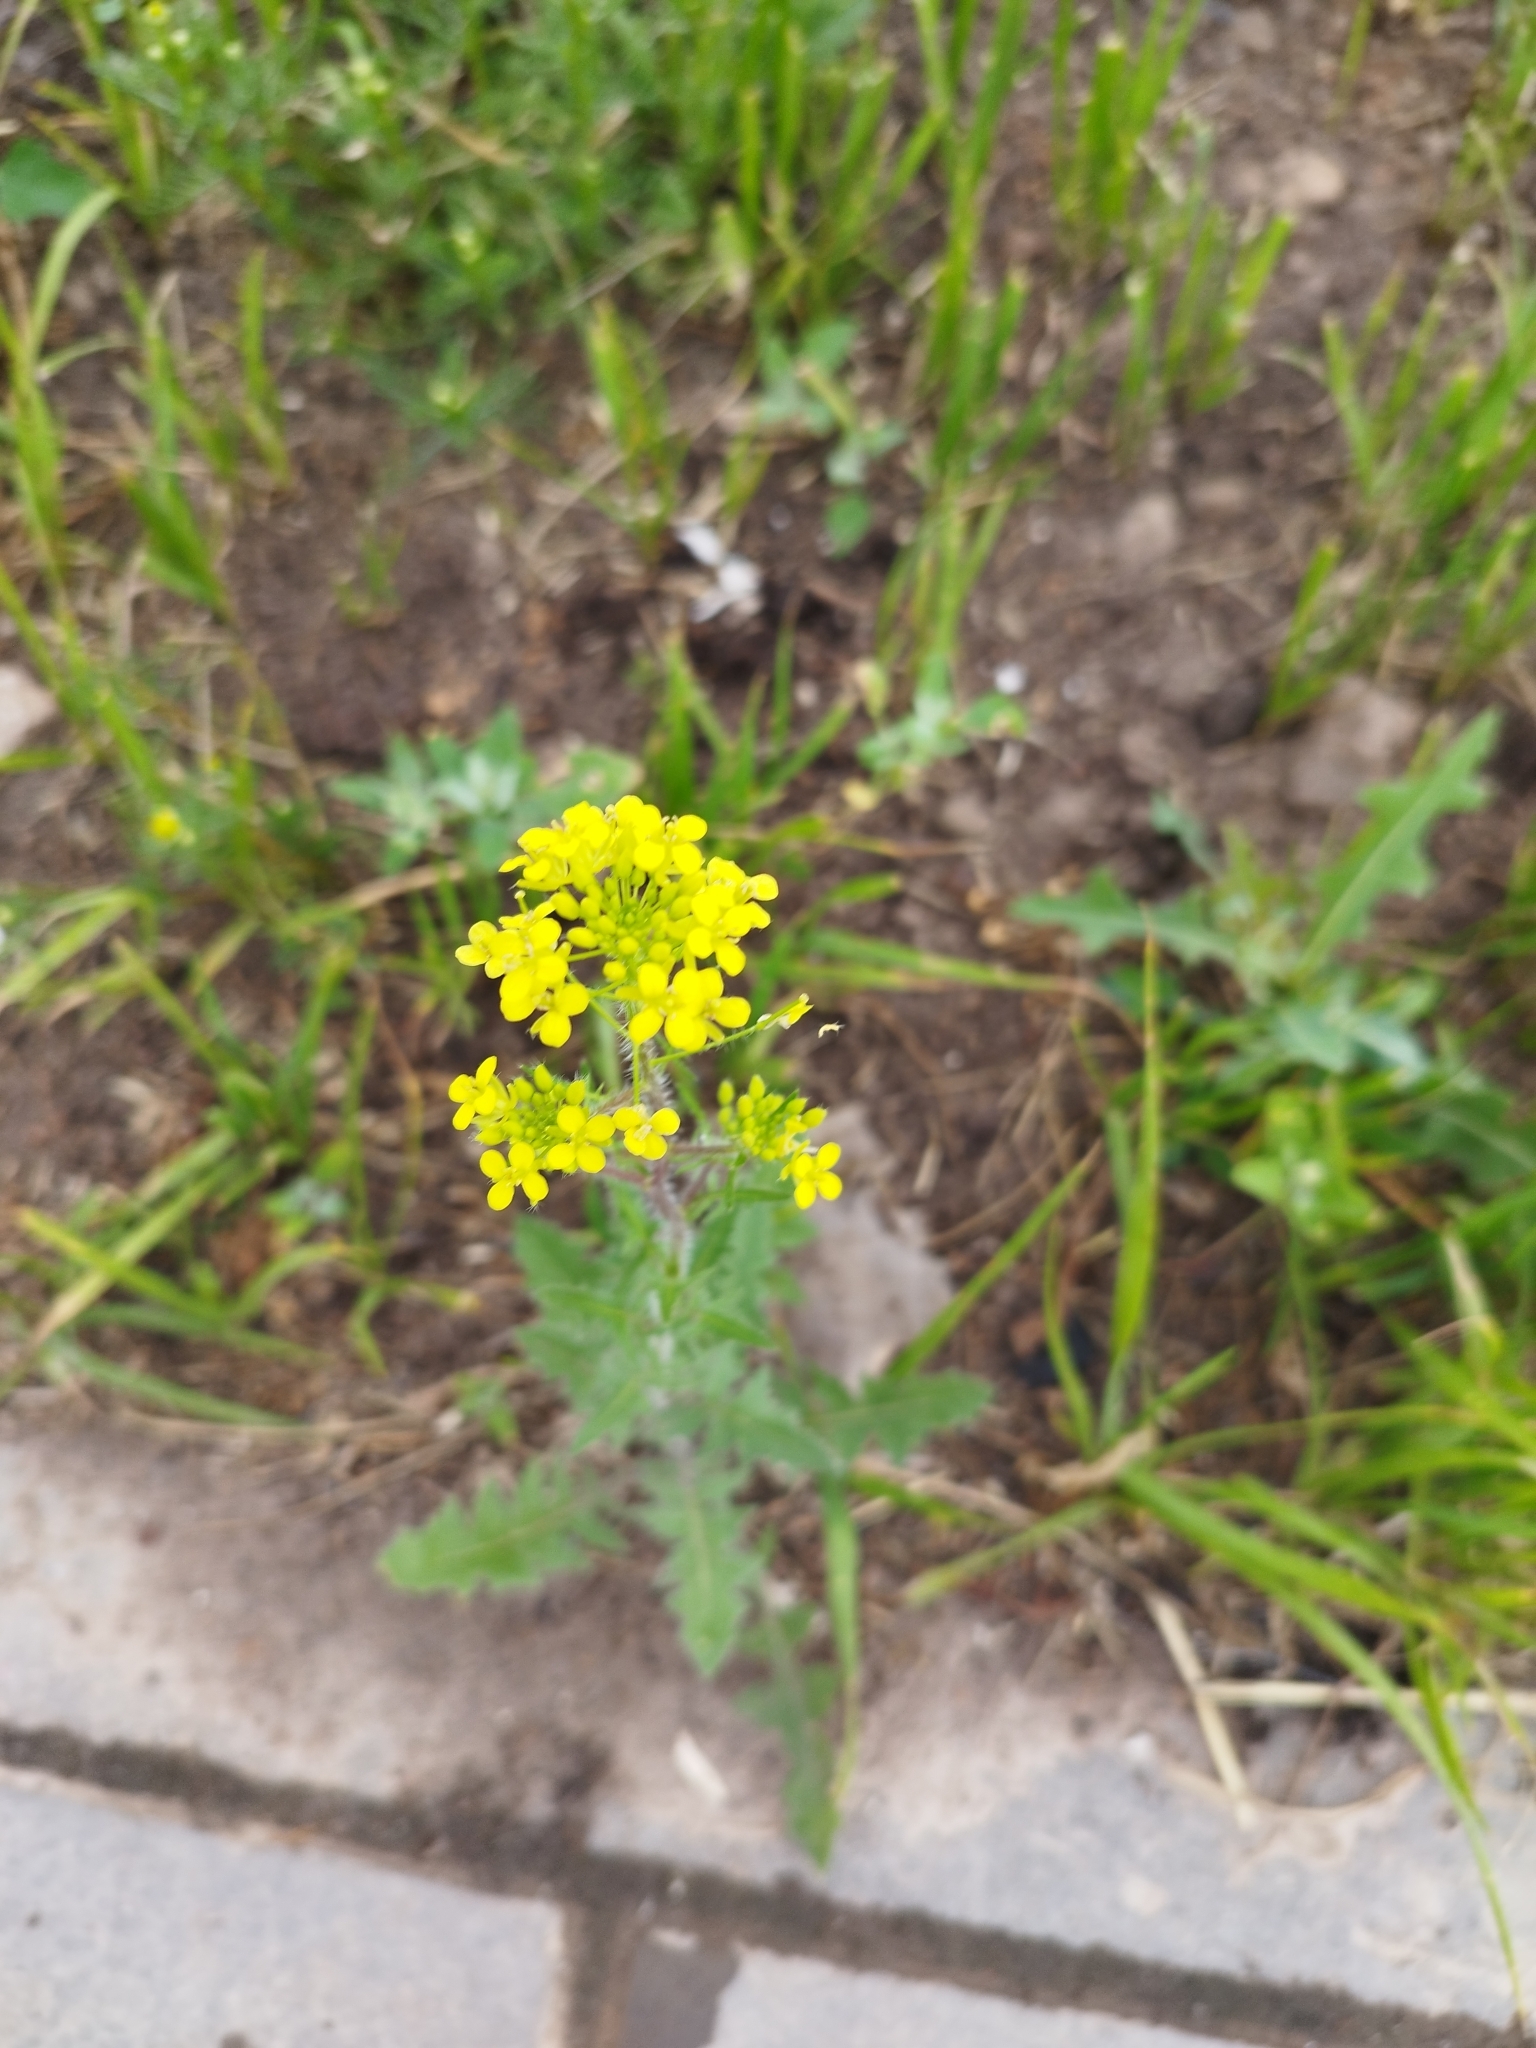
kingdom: Plantae
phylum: Tracheophyta
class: Magnoliopsida
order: Brassicales
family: Brassicaceae
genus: Sisymbrium
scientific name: Sisymbrium loeselii
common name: False london-rocket
